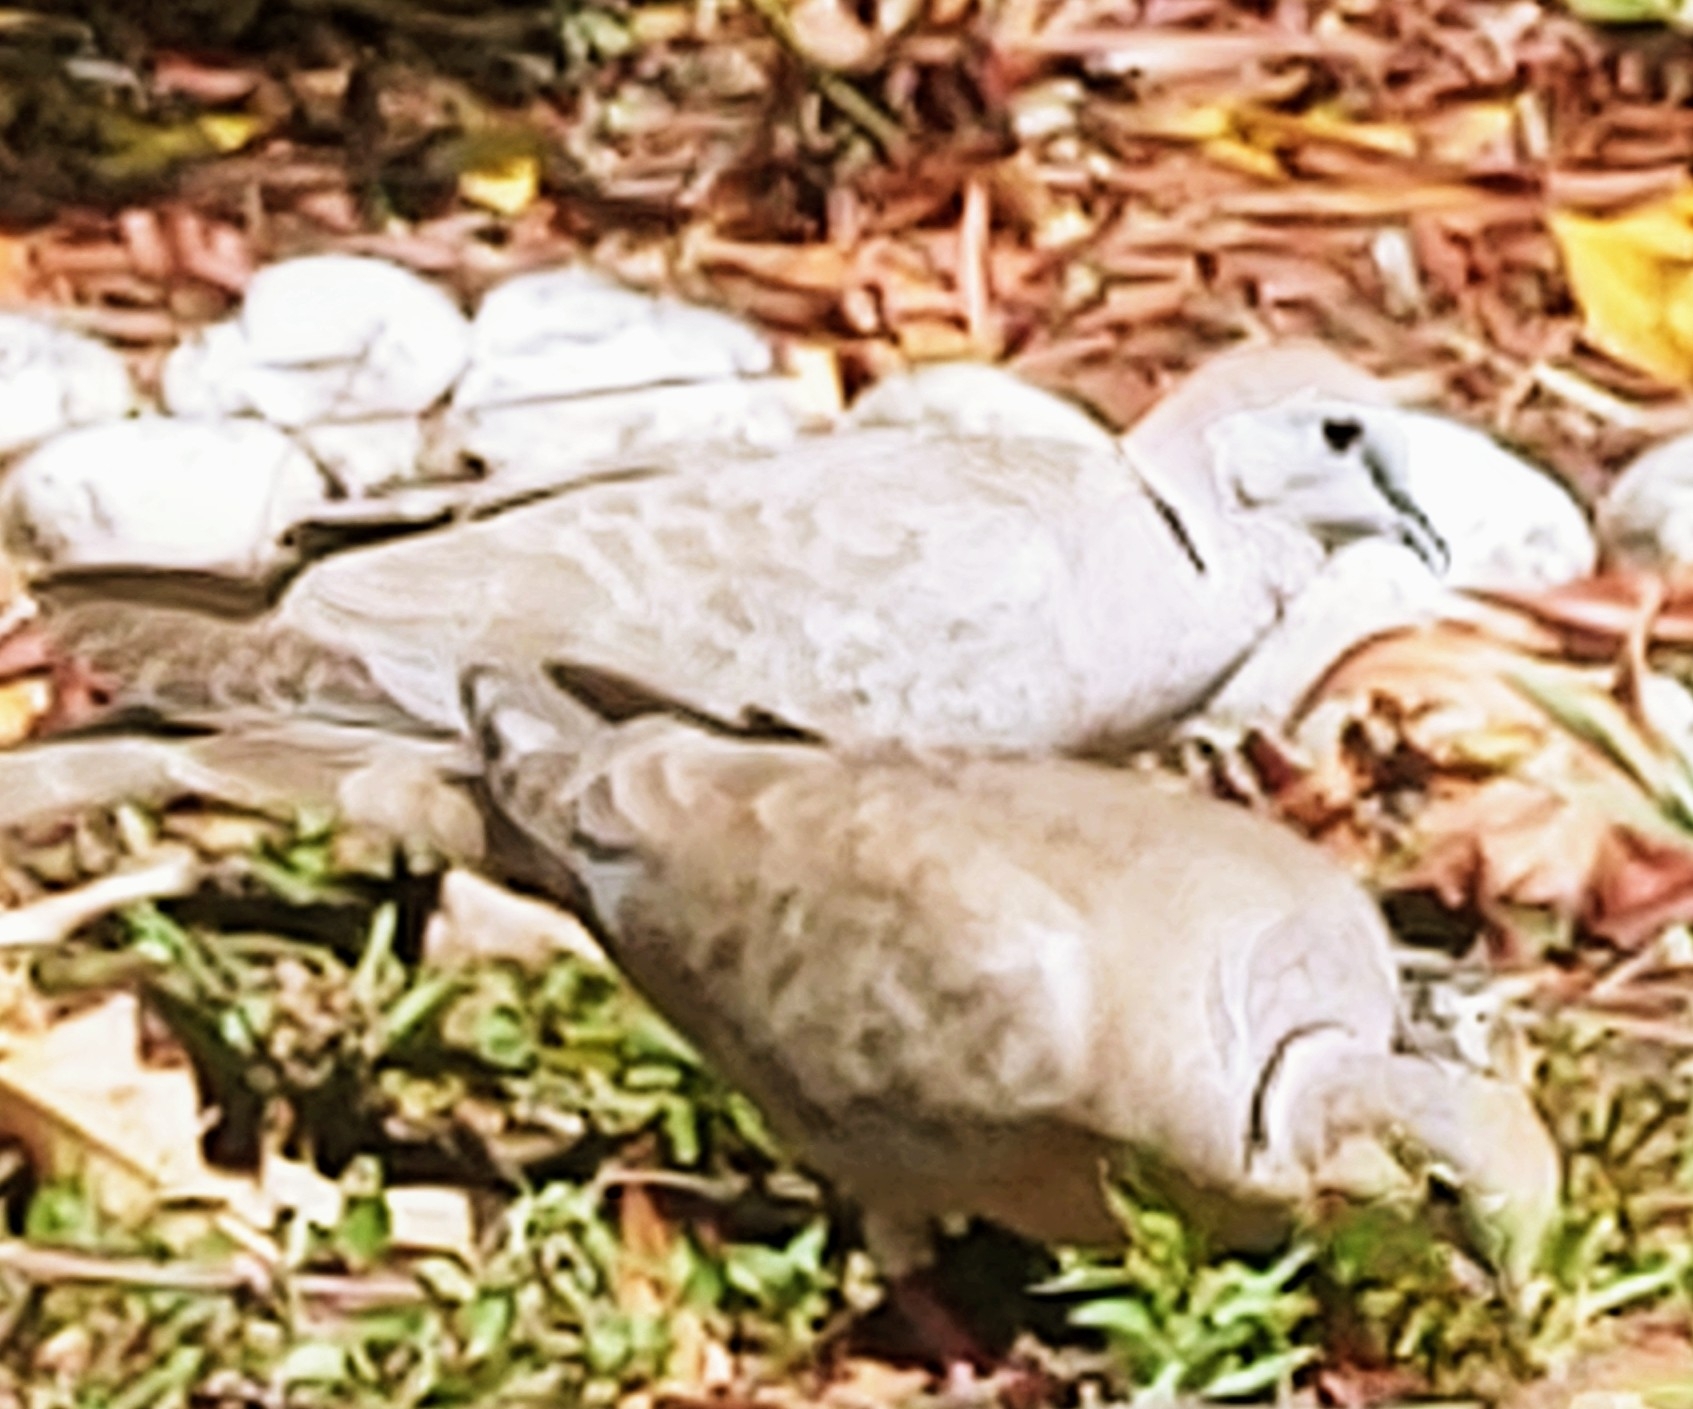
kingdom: Animalia
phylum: Chordata
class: Aves
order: Columbiformes
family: Columbidae
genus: Streptopelia
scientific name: Streptopelia decaocto
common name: Eurasian collared dove
